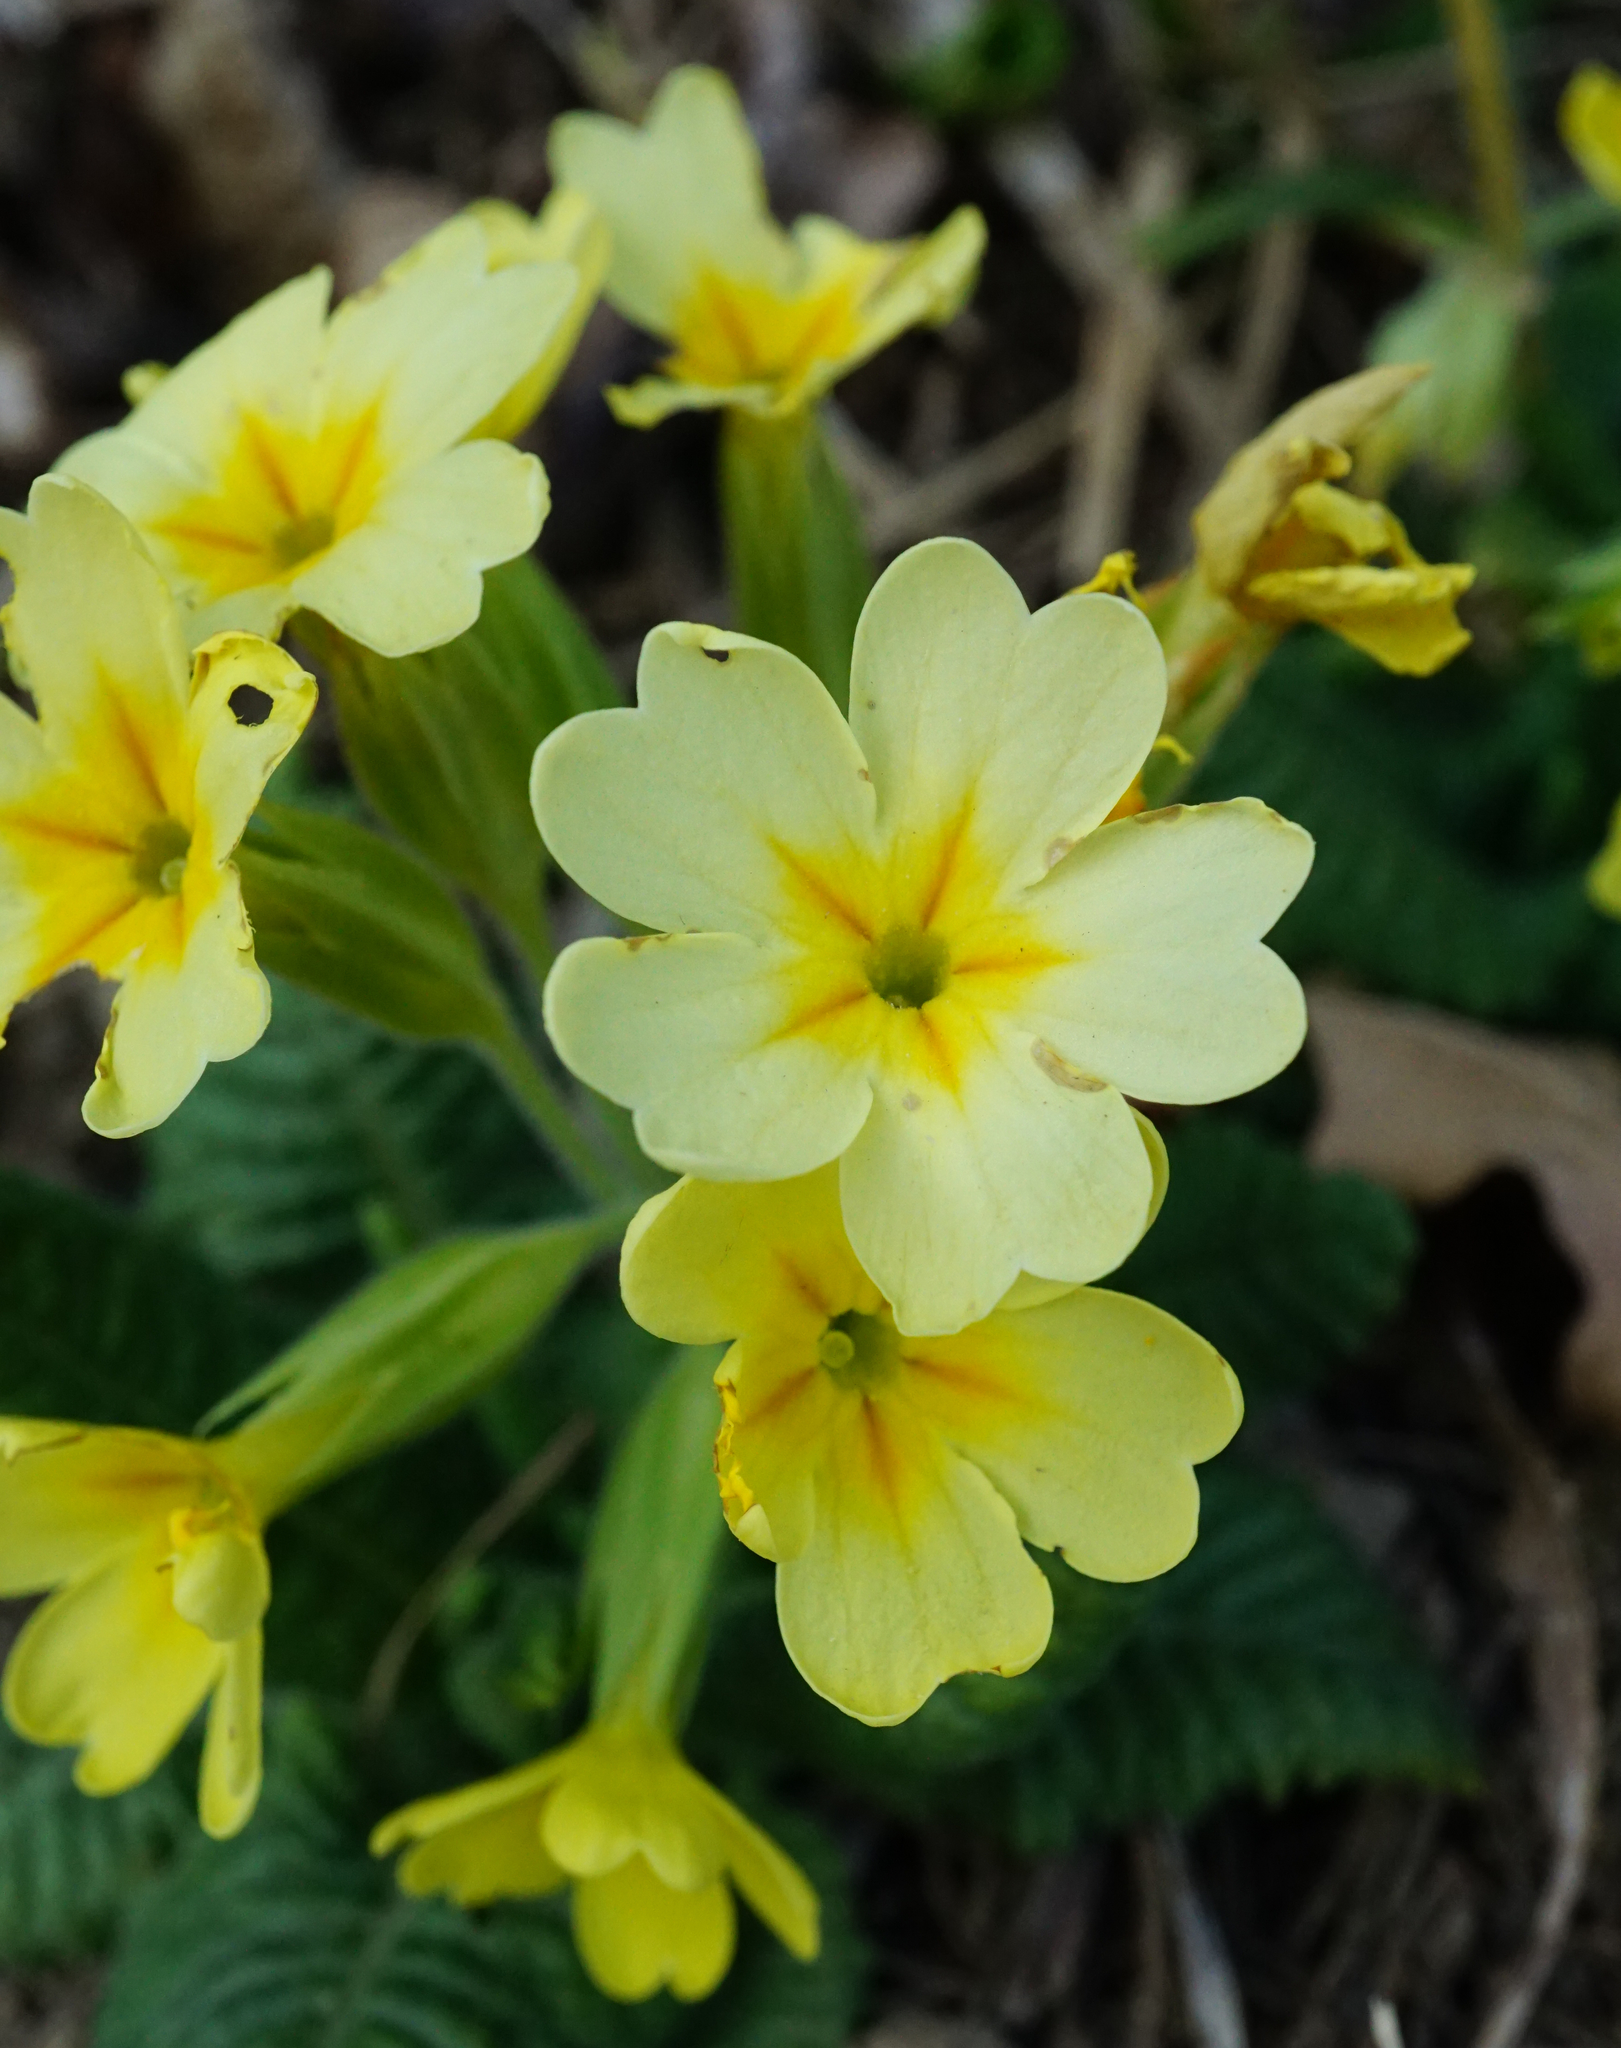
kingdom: Plantae
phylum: Tracheophyta
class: Magnoliopsida
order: Ericales
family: Primulaceae
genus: Primula
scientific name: Primula polyantha
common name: False oxlip
